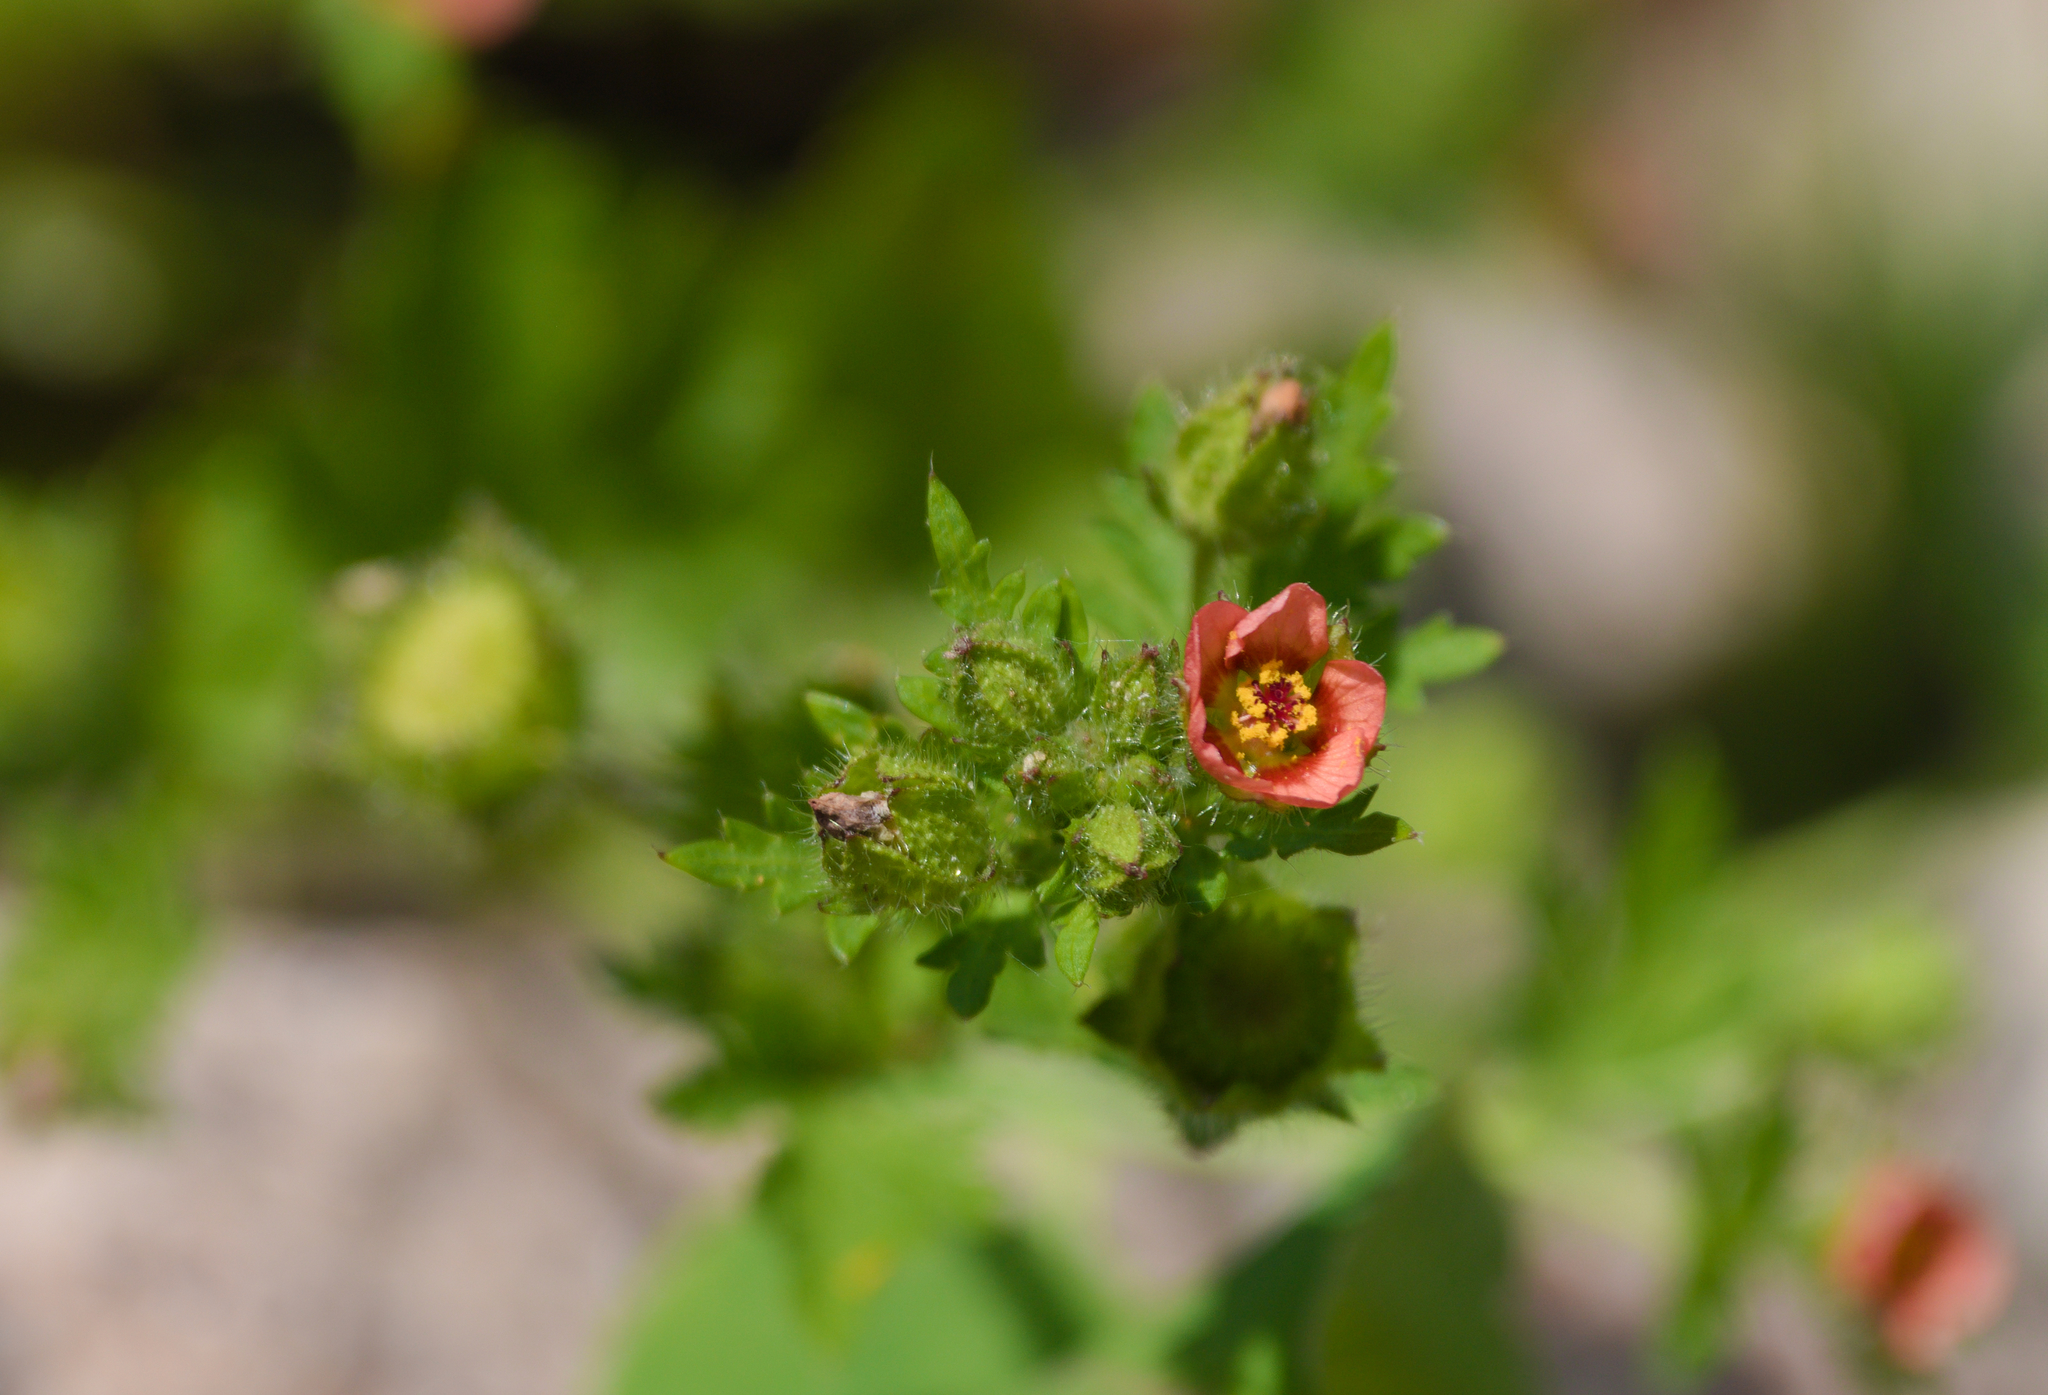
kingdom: Plantae
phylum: Tracheophyta
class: Magnoliopsida
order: Malvales
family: Malvaceae
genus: Modiola
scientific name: Modiola caroliniana
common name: Carolina bristlemallow
